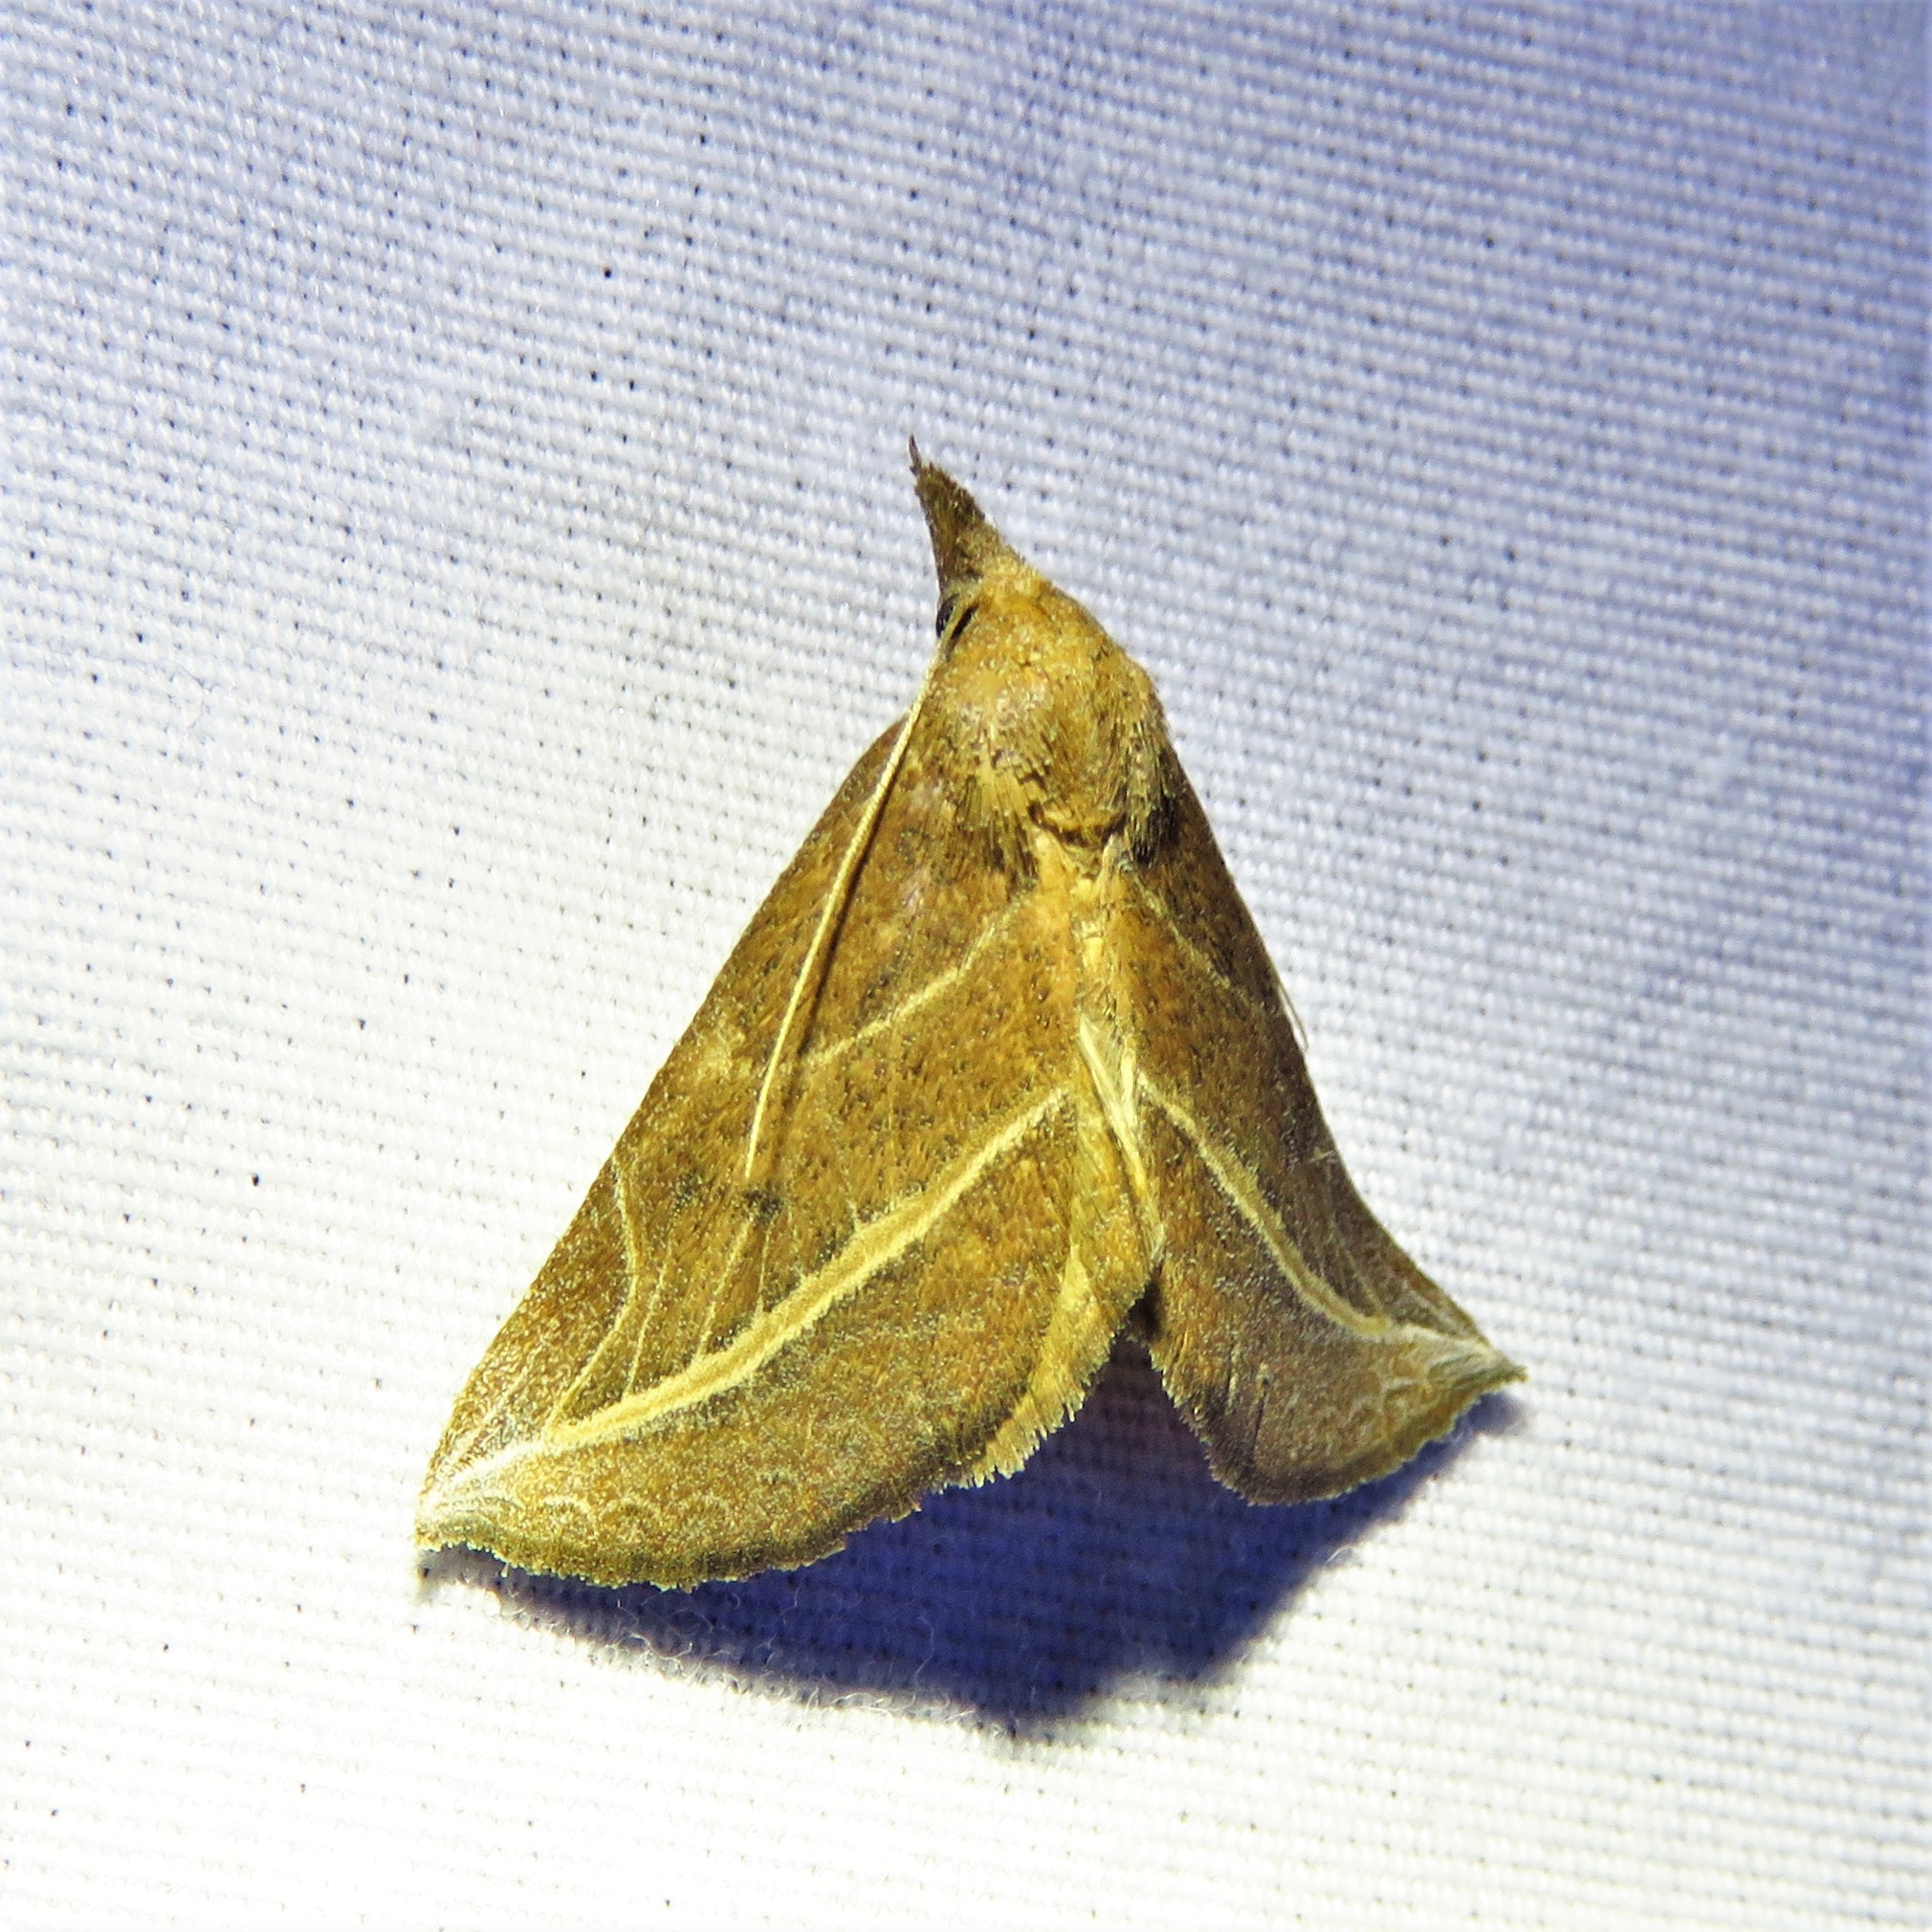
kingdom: Animalia
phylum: Arthropoda
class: Insecta
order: Lepidoptera
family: Erebidae
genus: Phyprosopus
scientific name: Phyprosopus callitrichoides
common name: Curved-lined owlet
